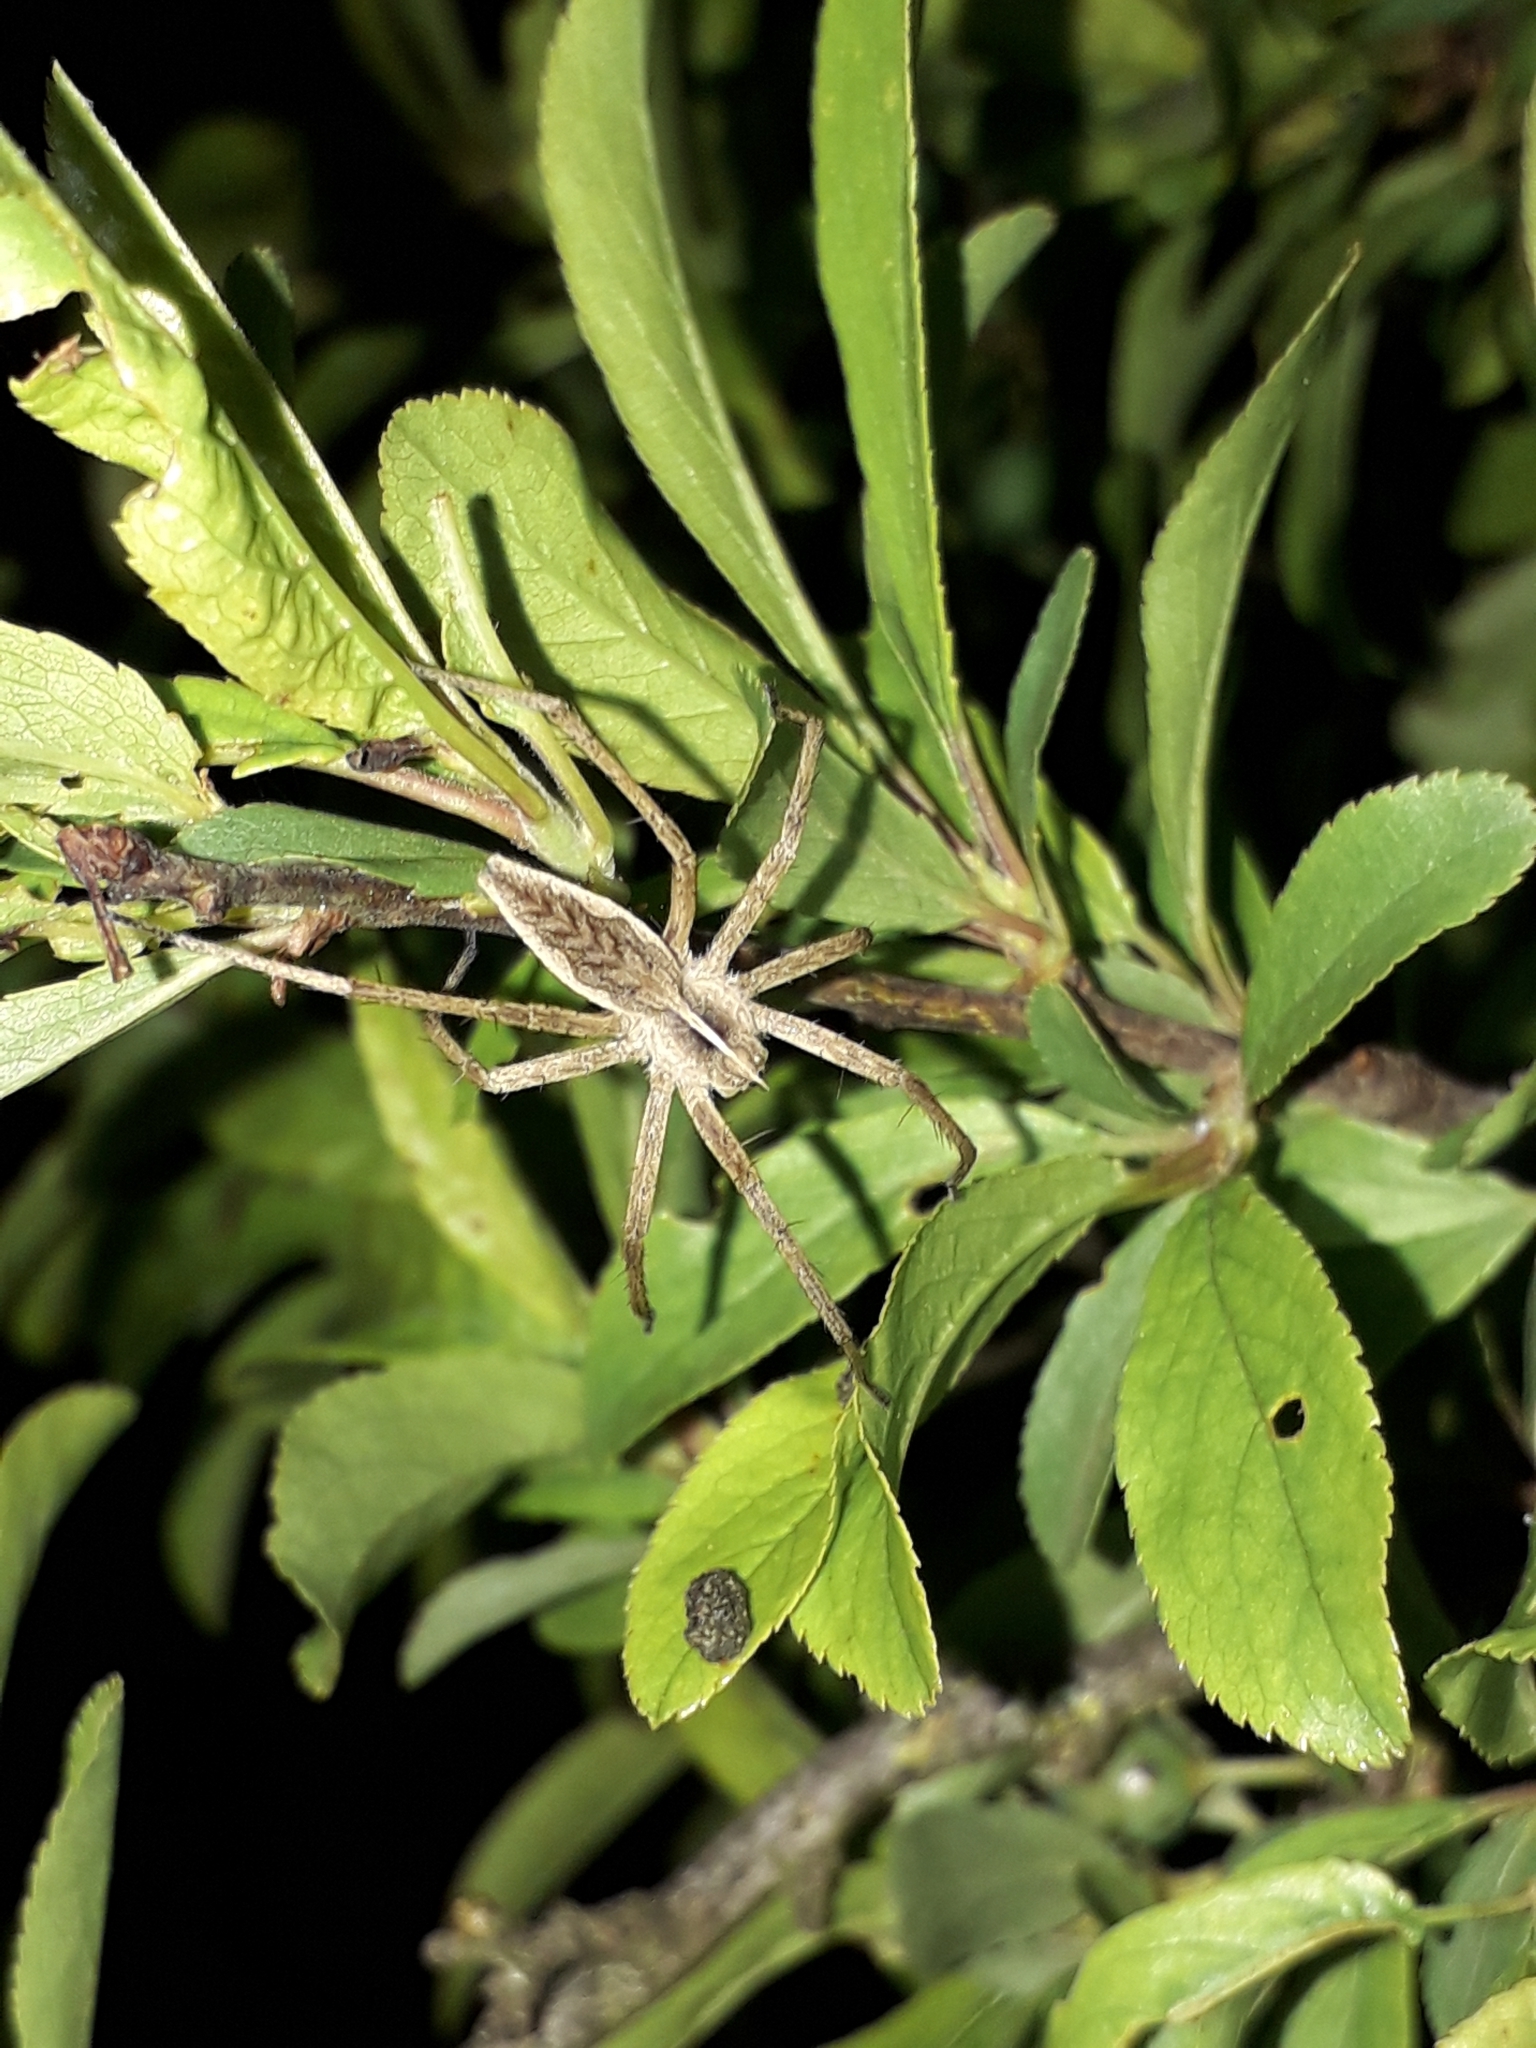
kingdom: Animalia
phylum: Arthropoda
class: Arachnida
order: Araneae
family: Pisauridae
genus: Pisaura
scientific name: Pisaura mirabilis
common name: Tent spider
